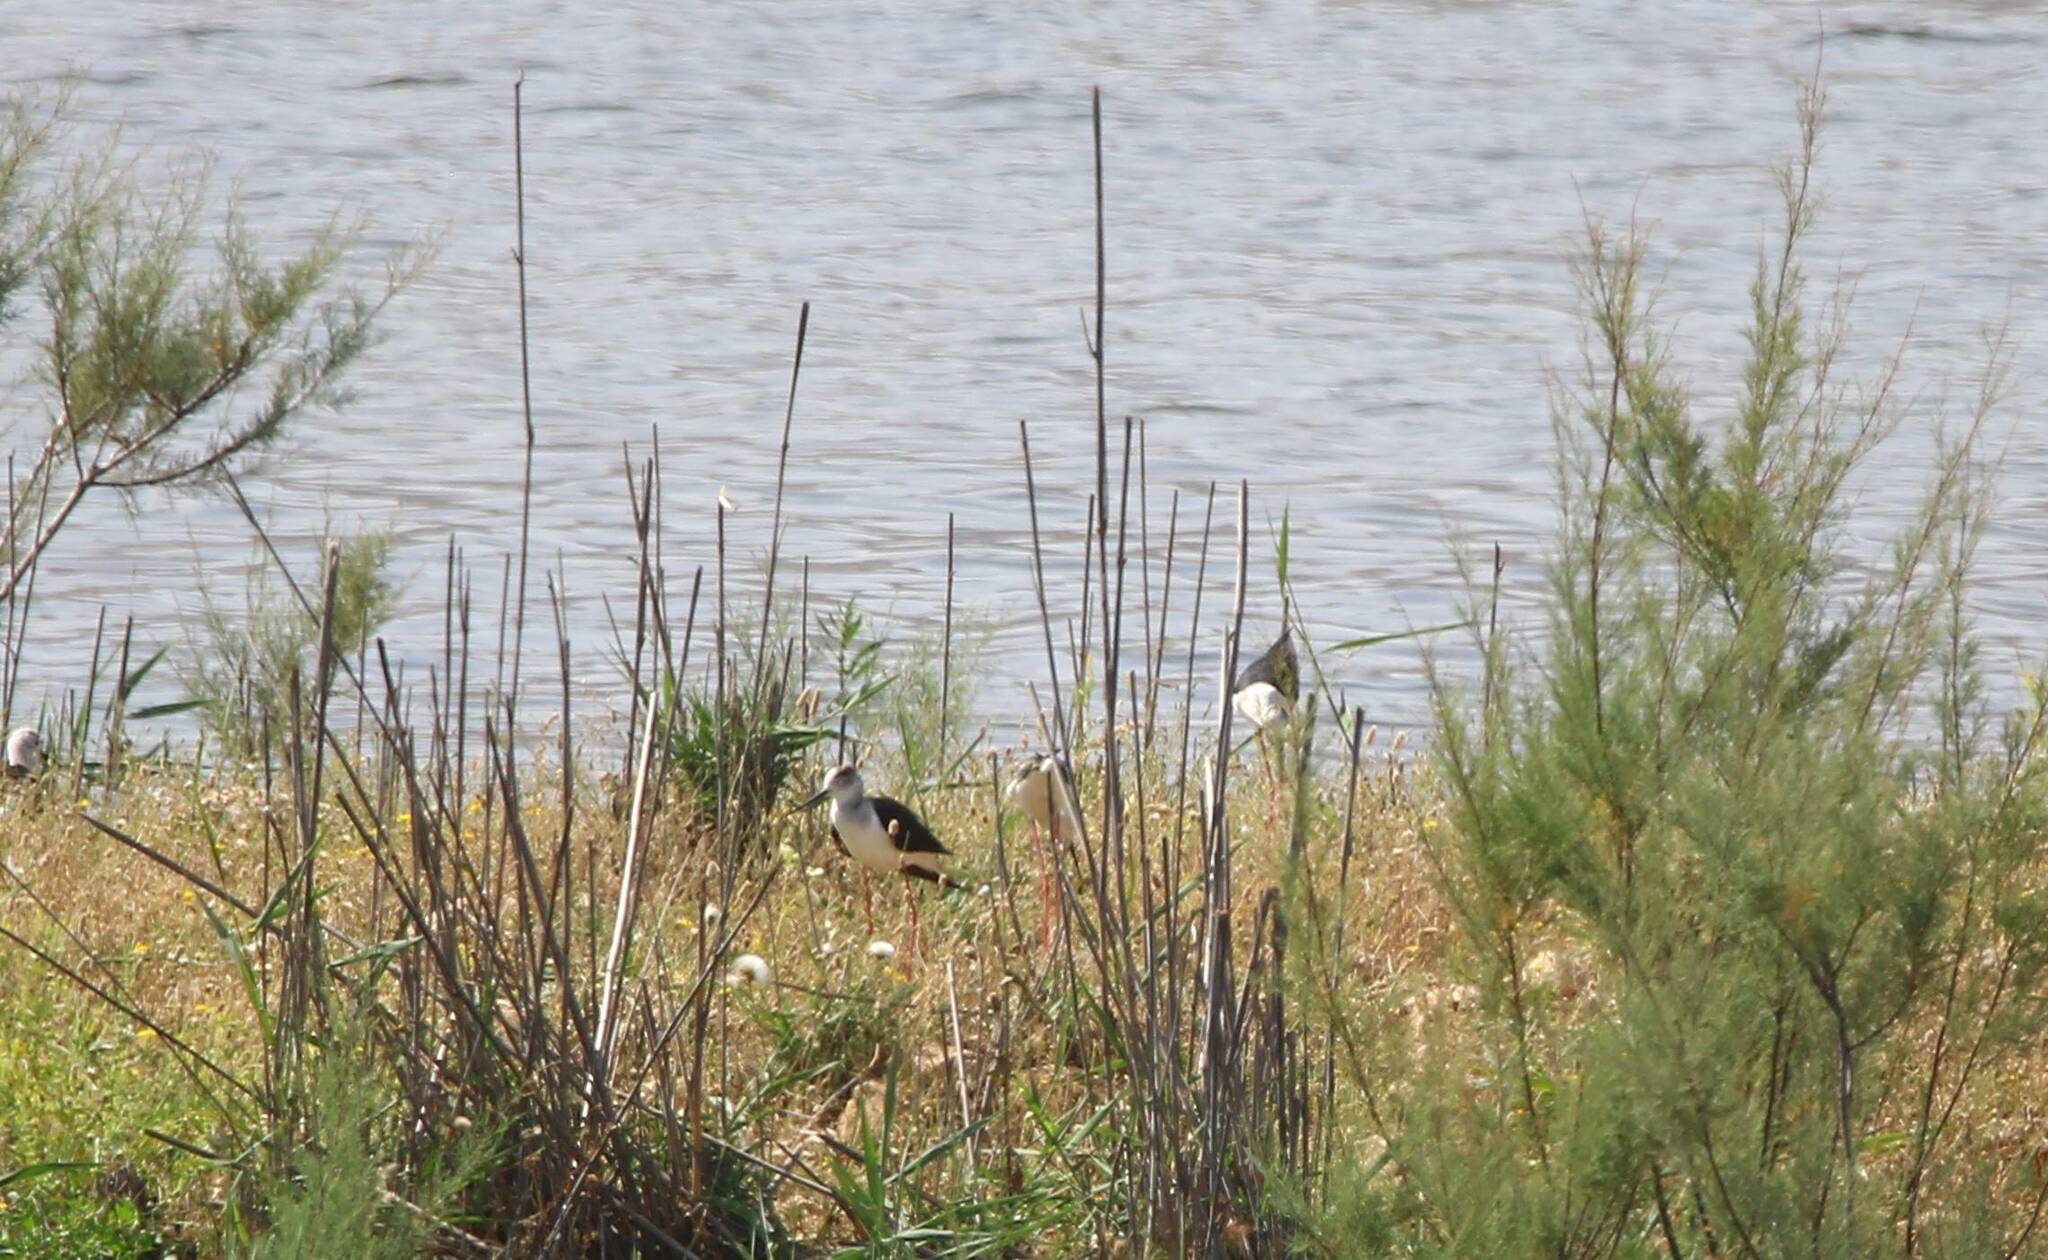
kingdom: Animalia
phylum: Chordata
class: Aves
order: Charadriiformes
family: Recurvirostridae
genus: Himantopus
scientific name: Himantopus himantopus
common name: Black-winged stilt
